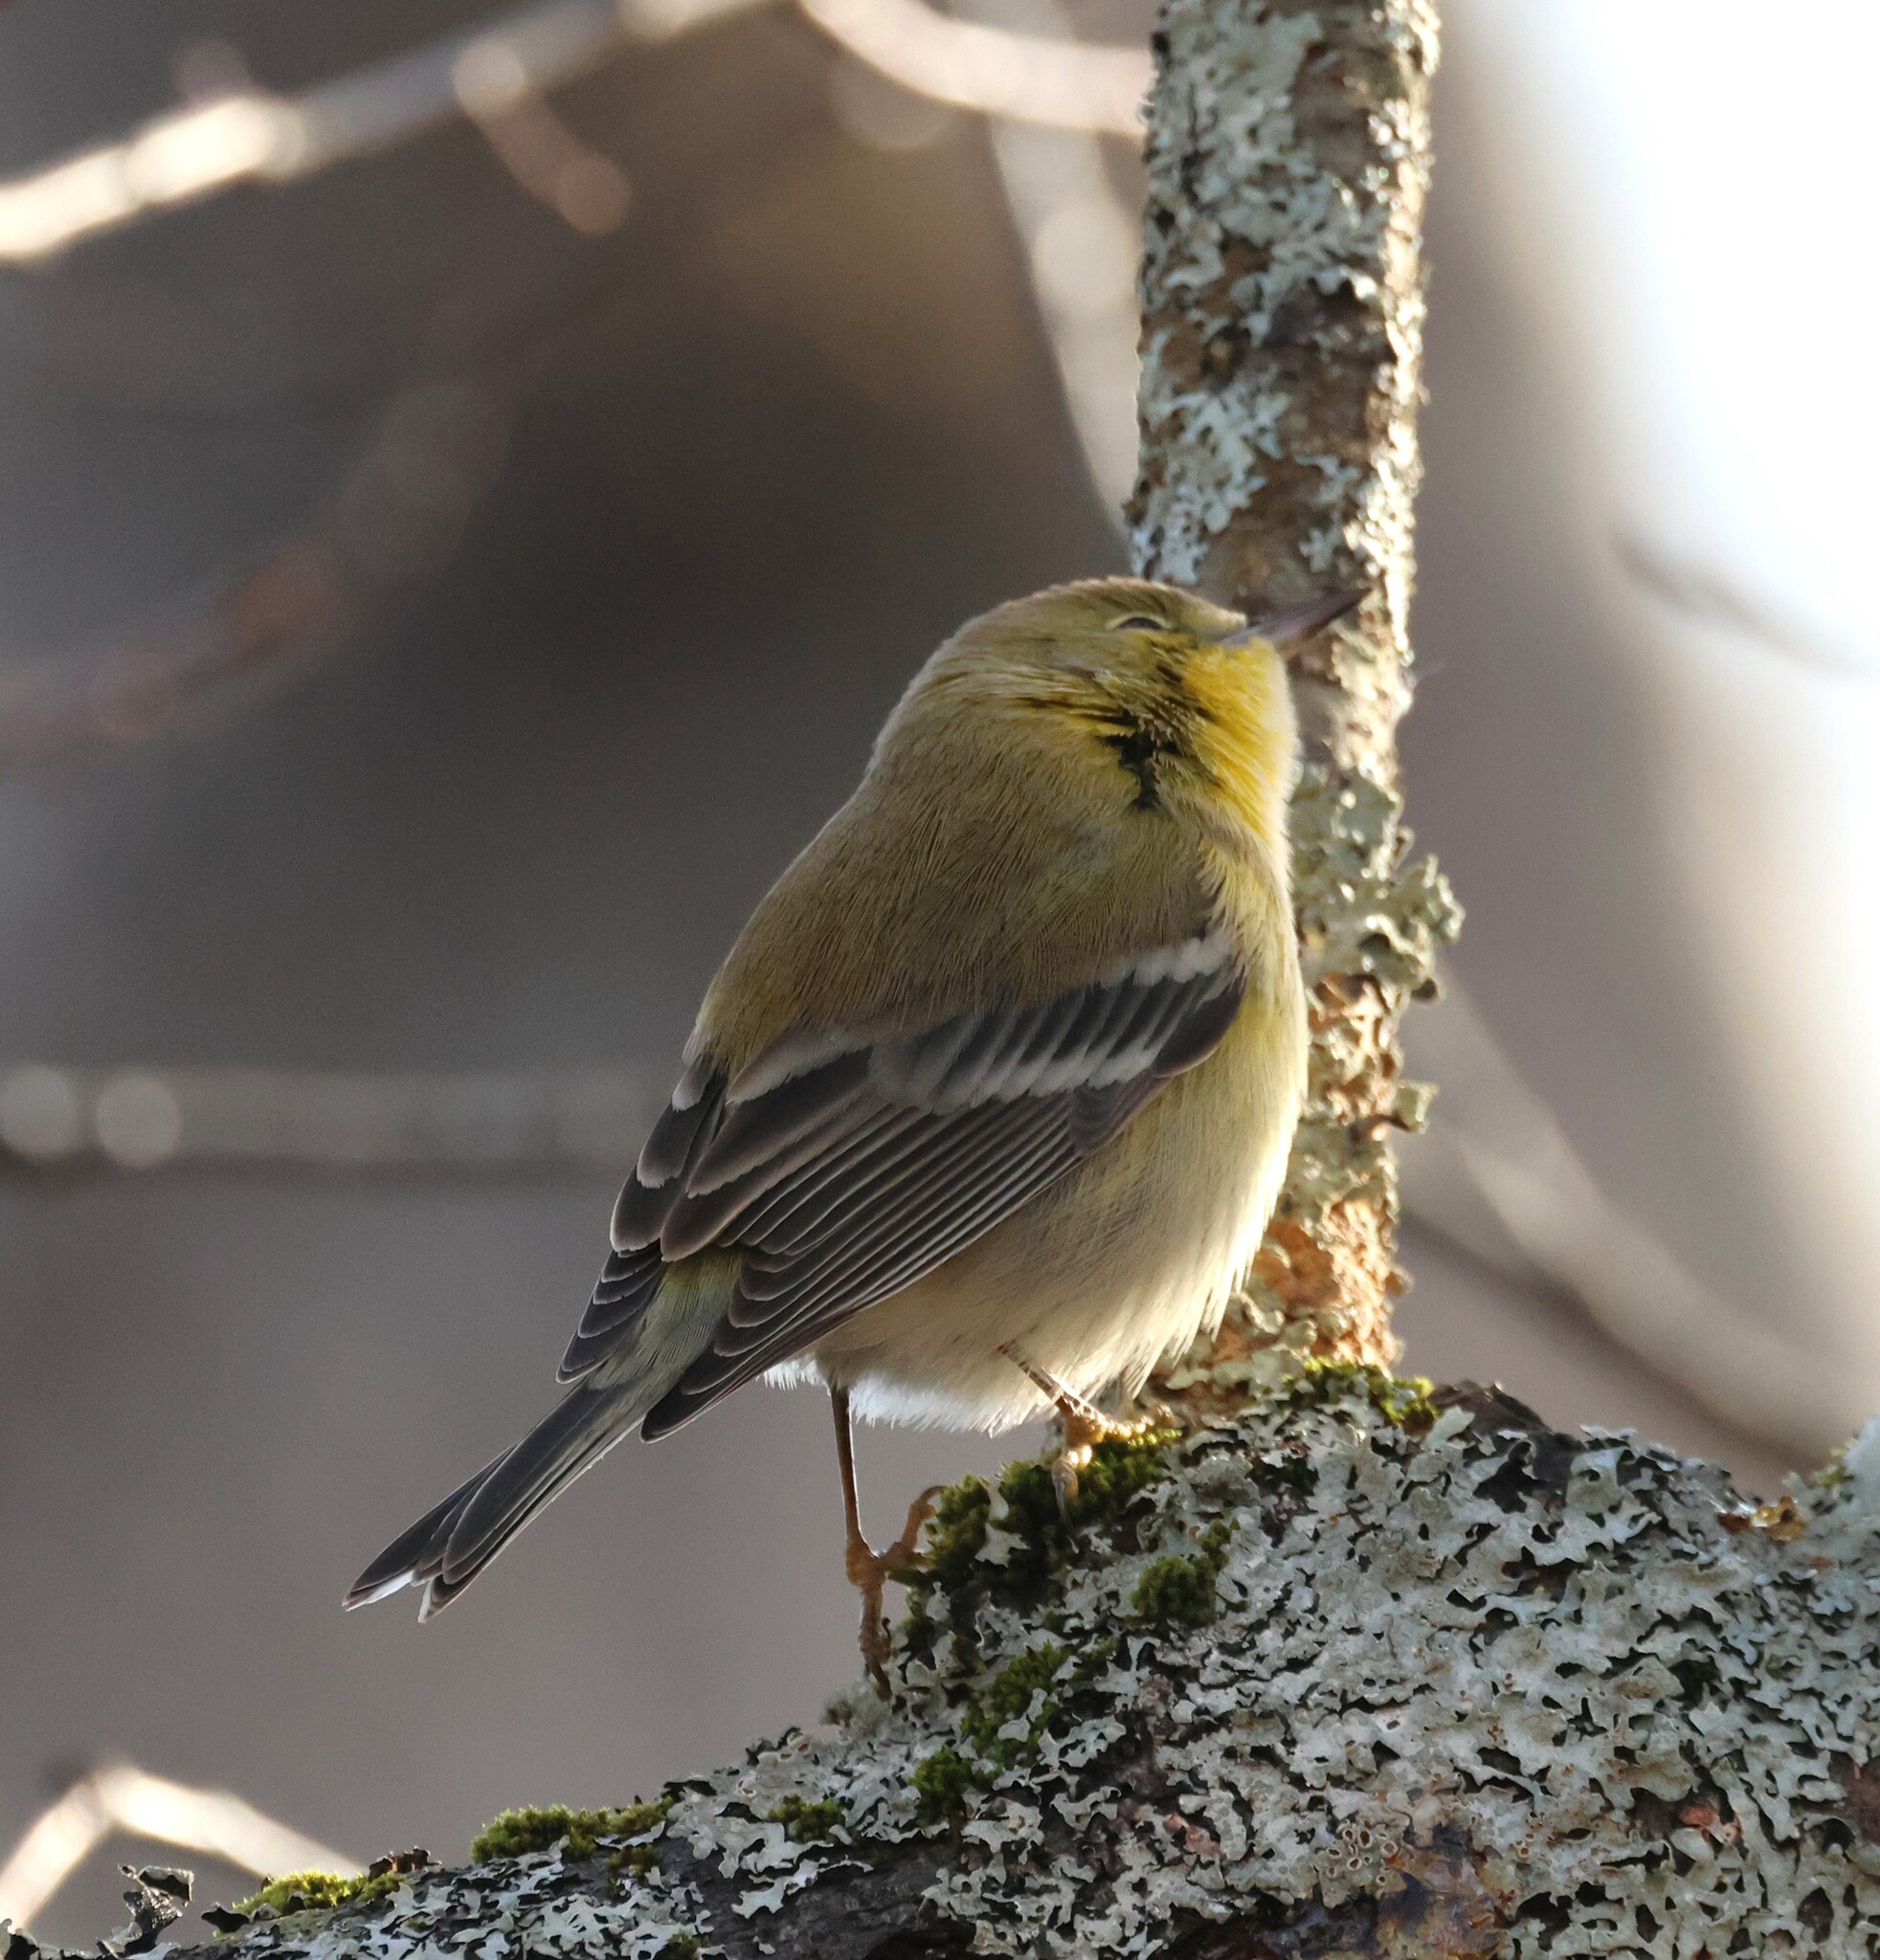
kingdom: Animalia
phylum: Chordata
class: Aves
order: Passeriformes
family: Parulidae
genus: Setophaga
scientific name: Setophaga pinus
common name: Pine warbler
